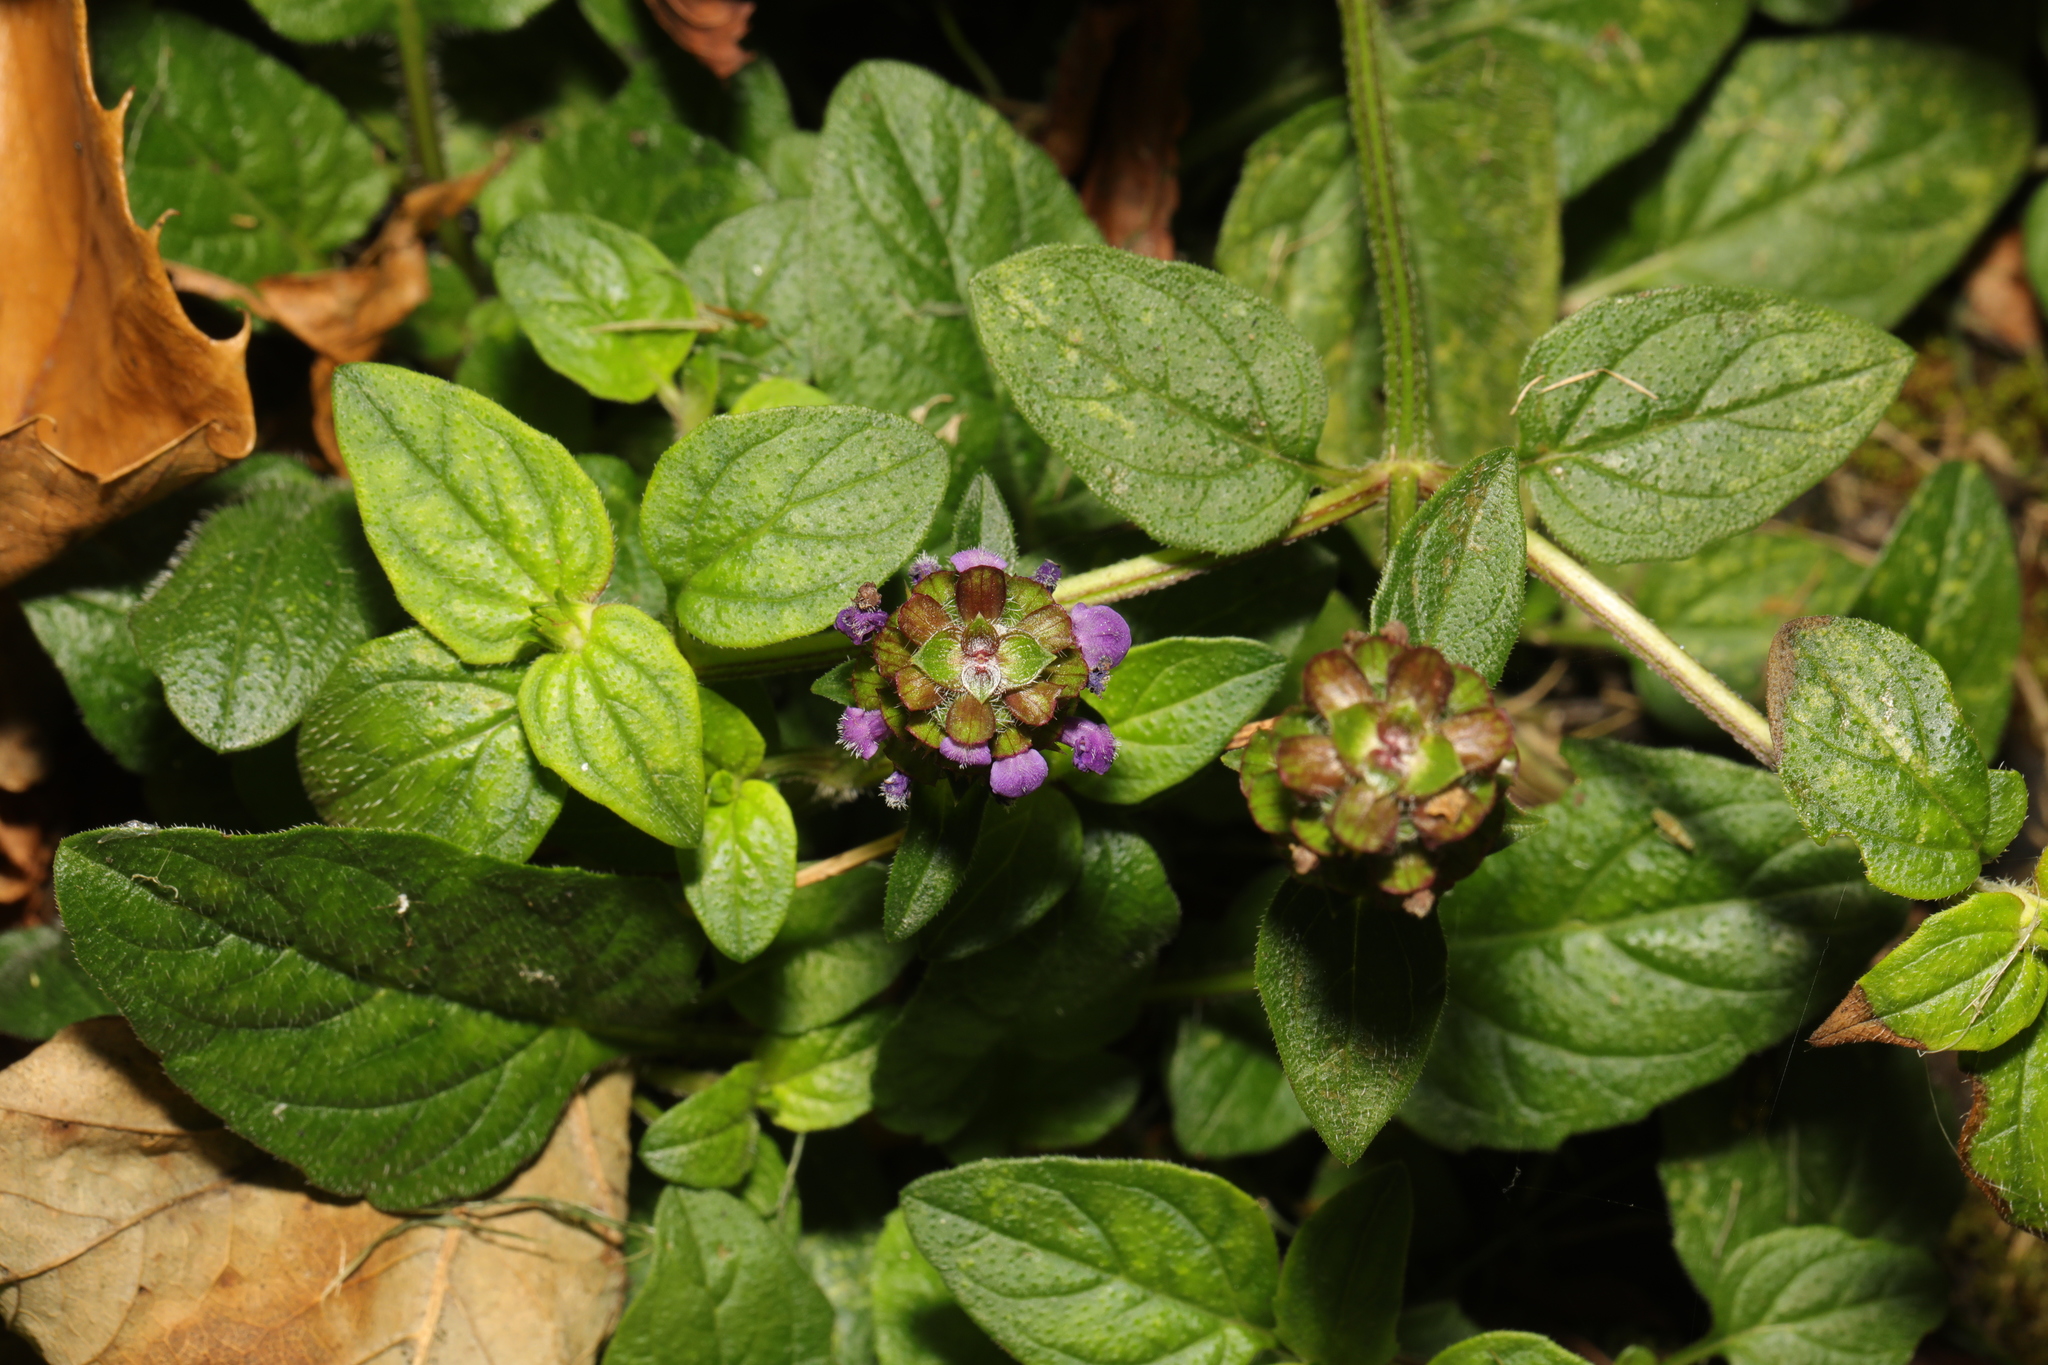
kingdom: Plantae
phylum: Tracheophyta
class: Magnoliopsida
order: Lamiales
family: Lamiaceae
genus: Prunella
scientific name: Prunella vulgaris
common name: Heal-all
